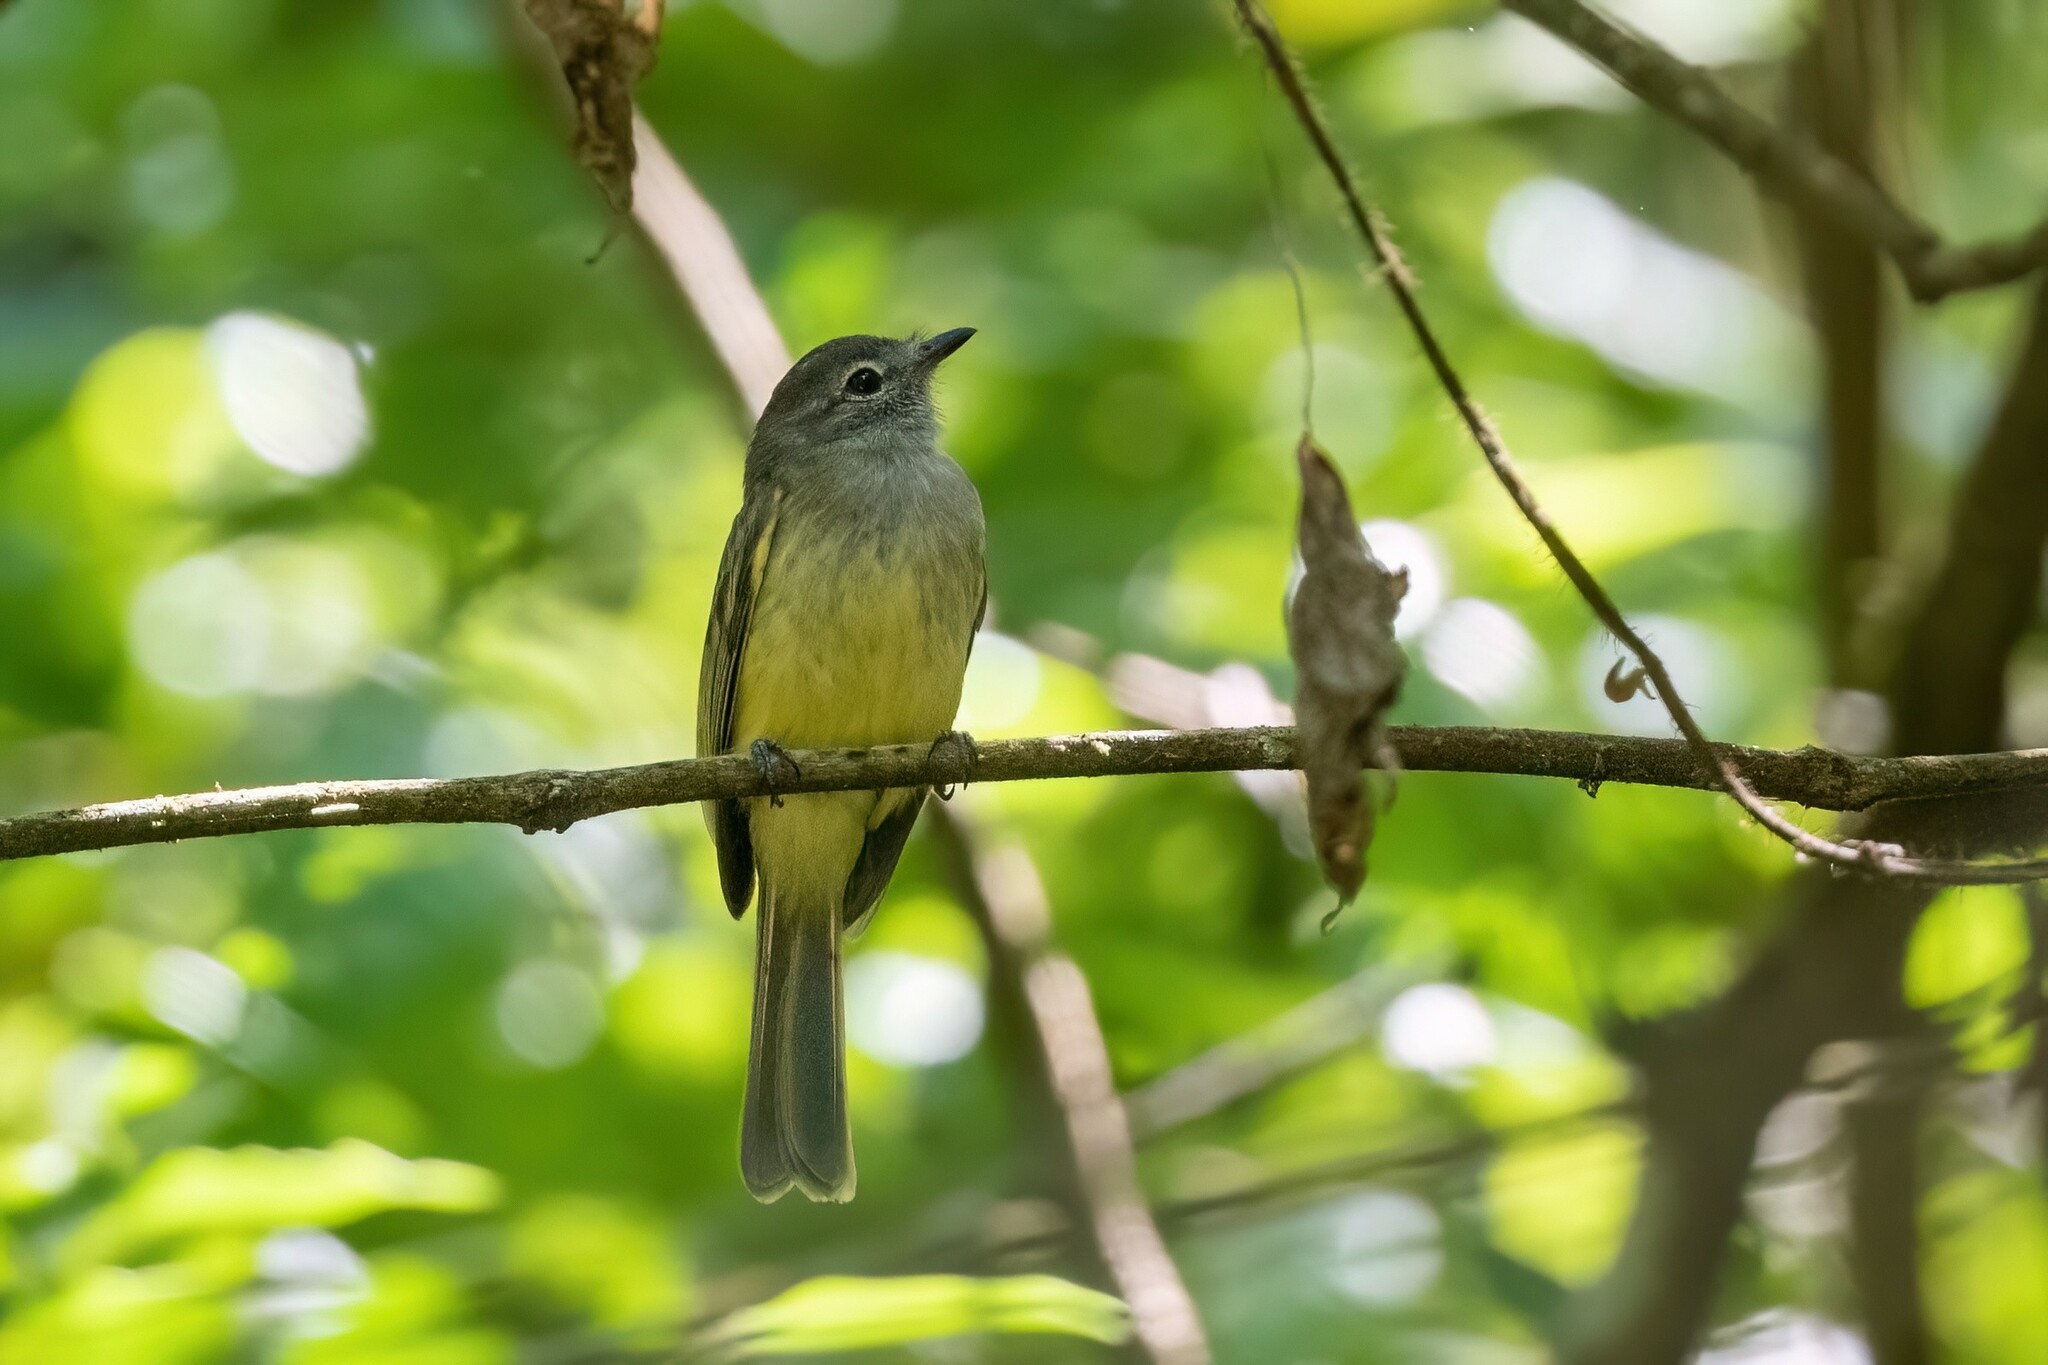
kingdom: Animalia
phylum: Chordata
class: Aves
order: Passeriformes
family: Tyrannidae
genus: Myiopagis
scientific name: Myiopagis viridicata
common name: Greenish elaenia
